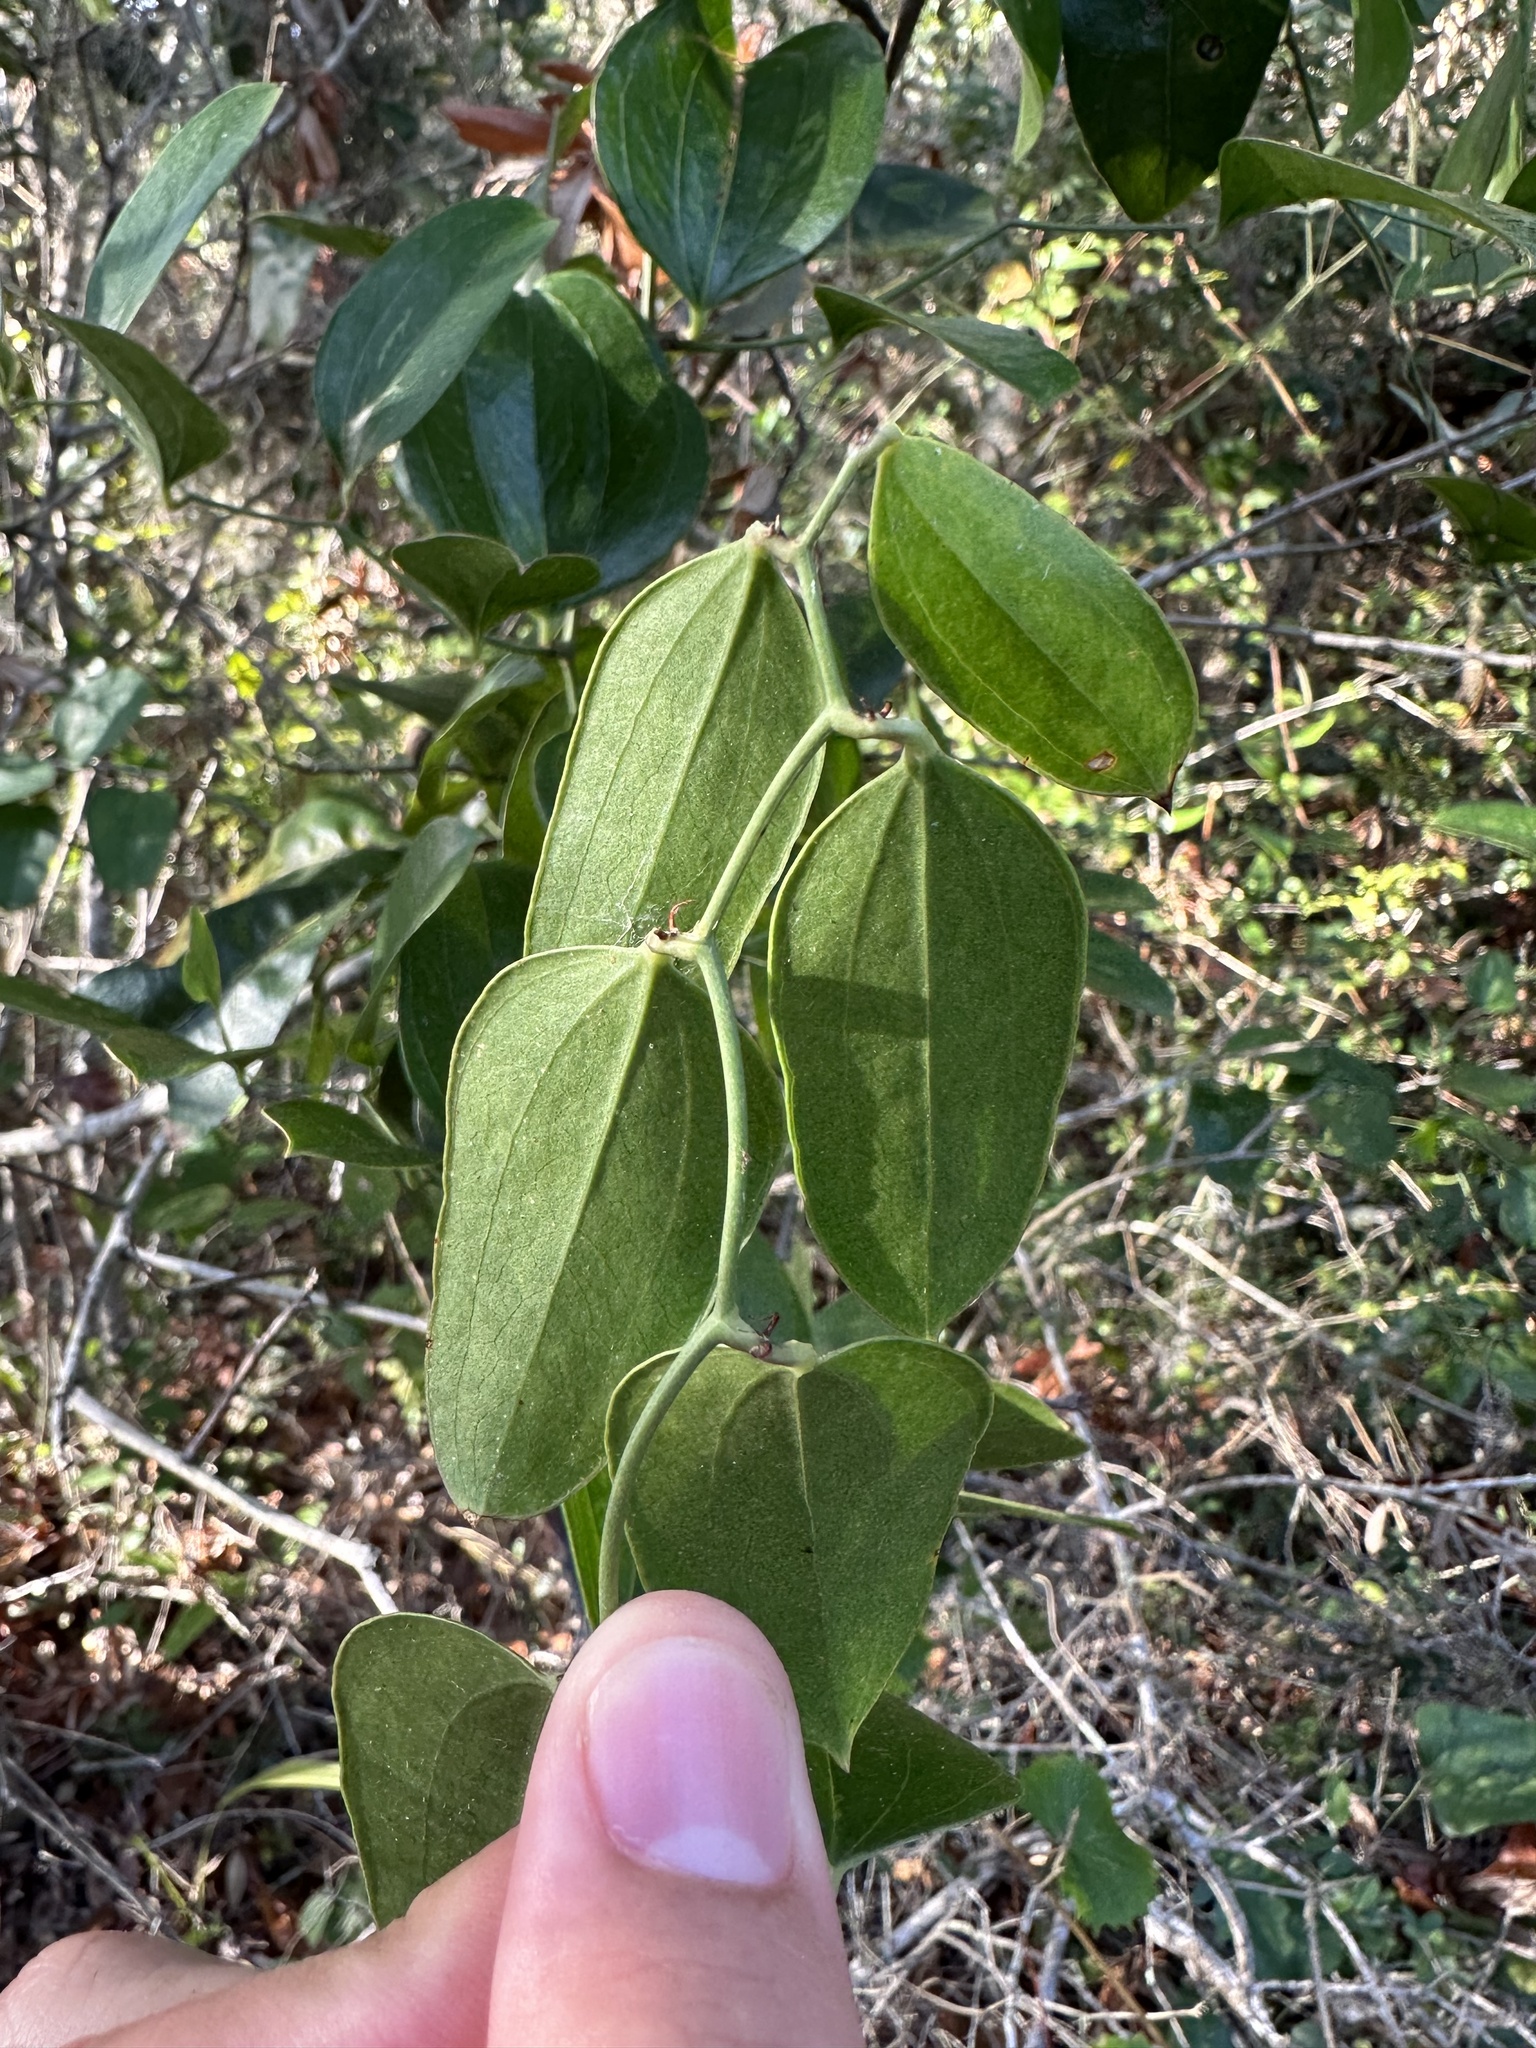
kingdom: Plantae
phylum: Tracheophyta
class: Liliopsida
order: Liliales
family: Smilacaceae
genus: Smilax
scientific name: Smilax auriculata
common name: Wild bamboo
